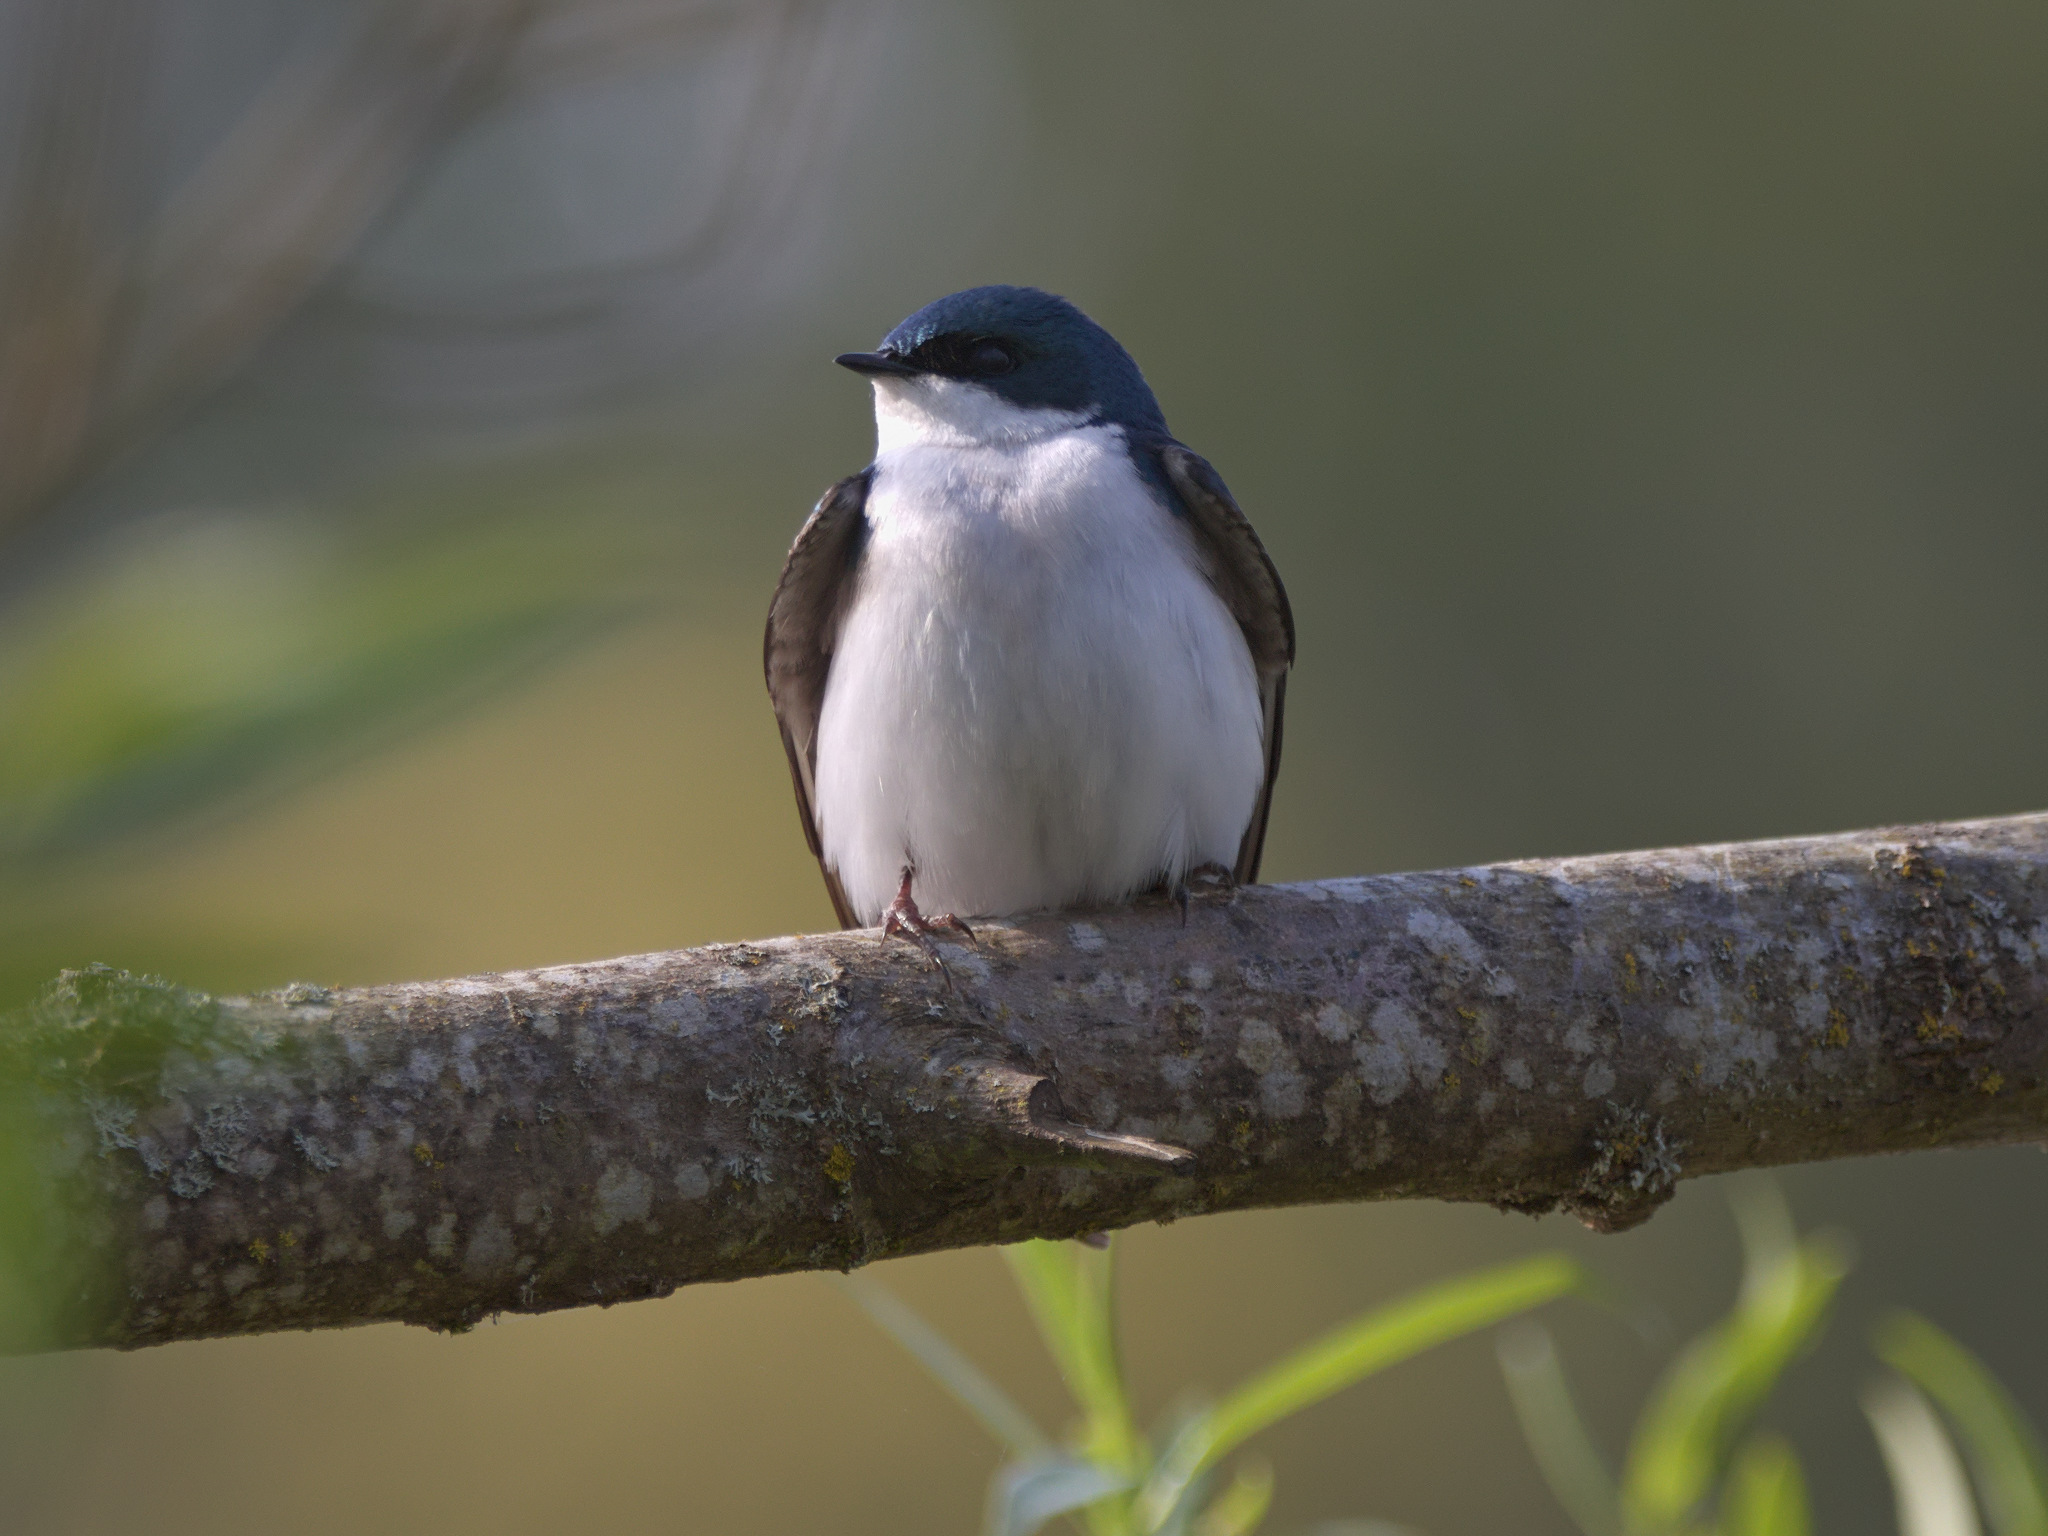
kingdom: Animalia
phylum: Chordata
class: Aves
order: Passeriformes
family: Hirundinidae
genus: Tachycineta
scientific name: Tachycineta bicolor
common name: Tree swallow
